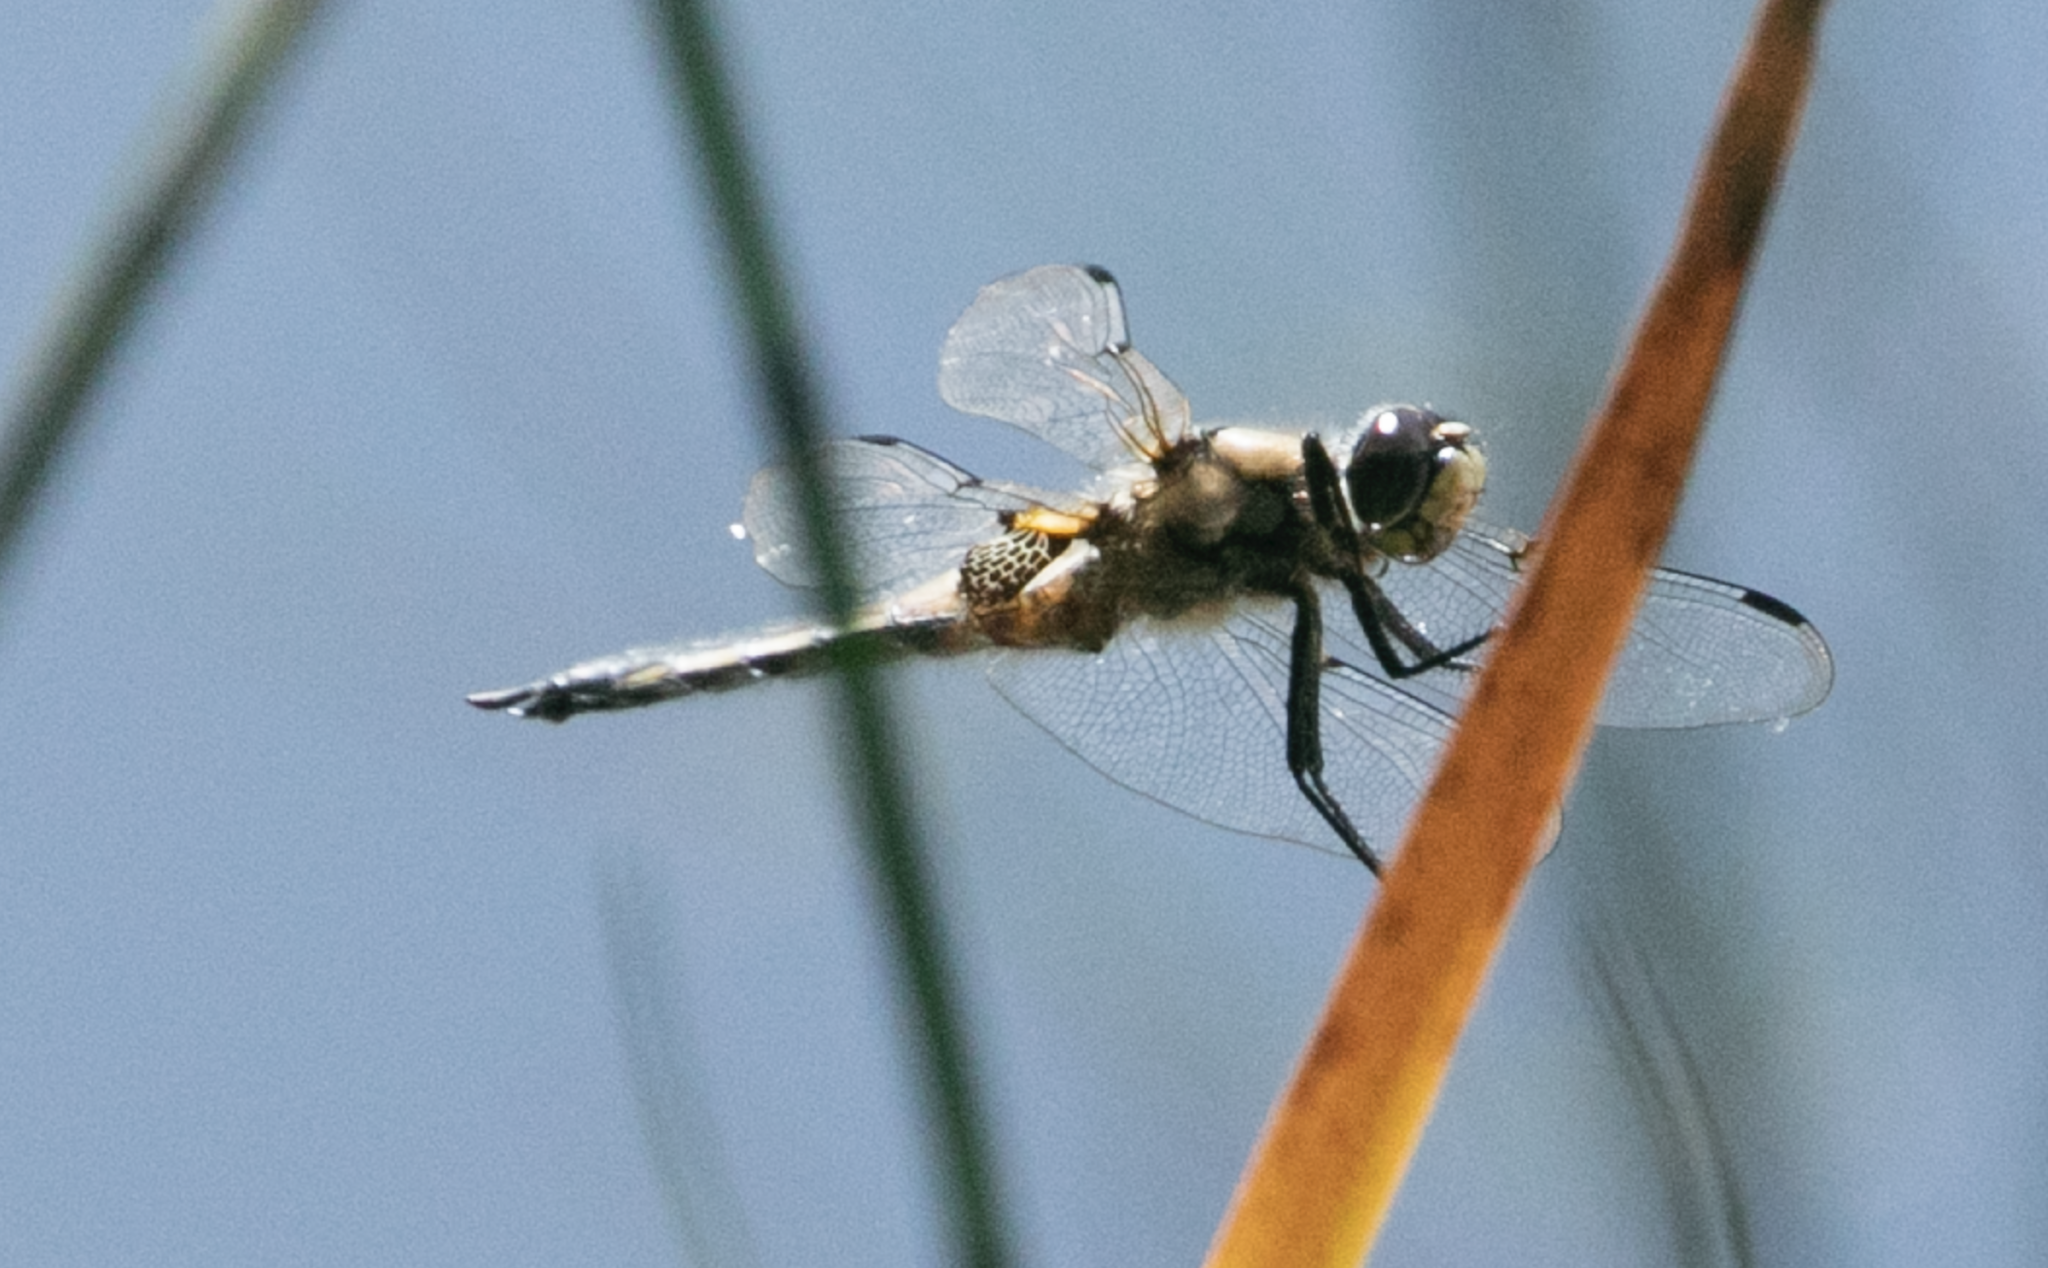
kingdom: Animalia
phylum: Arthropoda
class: Insecta
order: Odonata
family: Libellulidae
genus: Libellula
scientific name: Libellula quadrimaculata
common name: Four-spotted chaser
